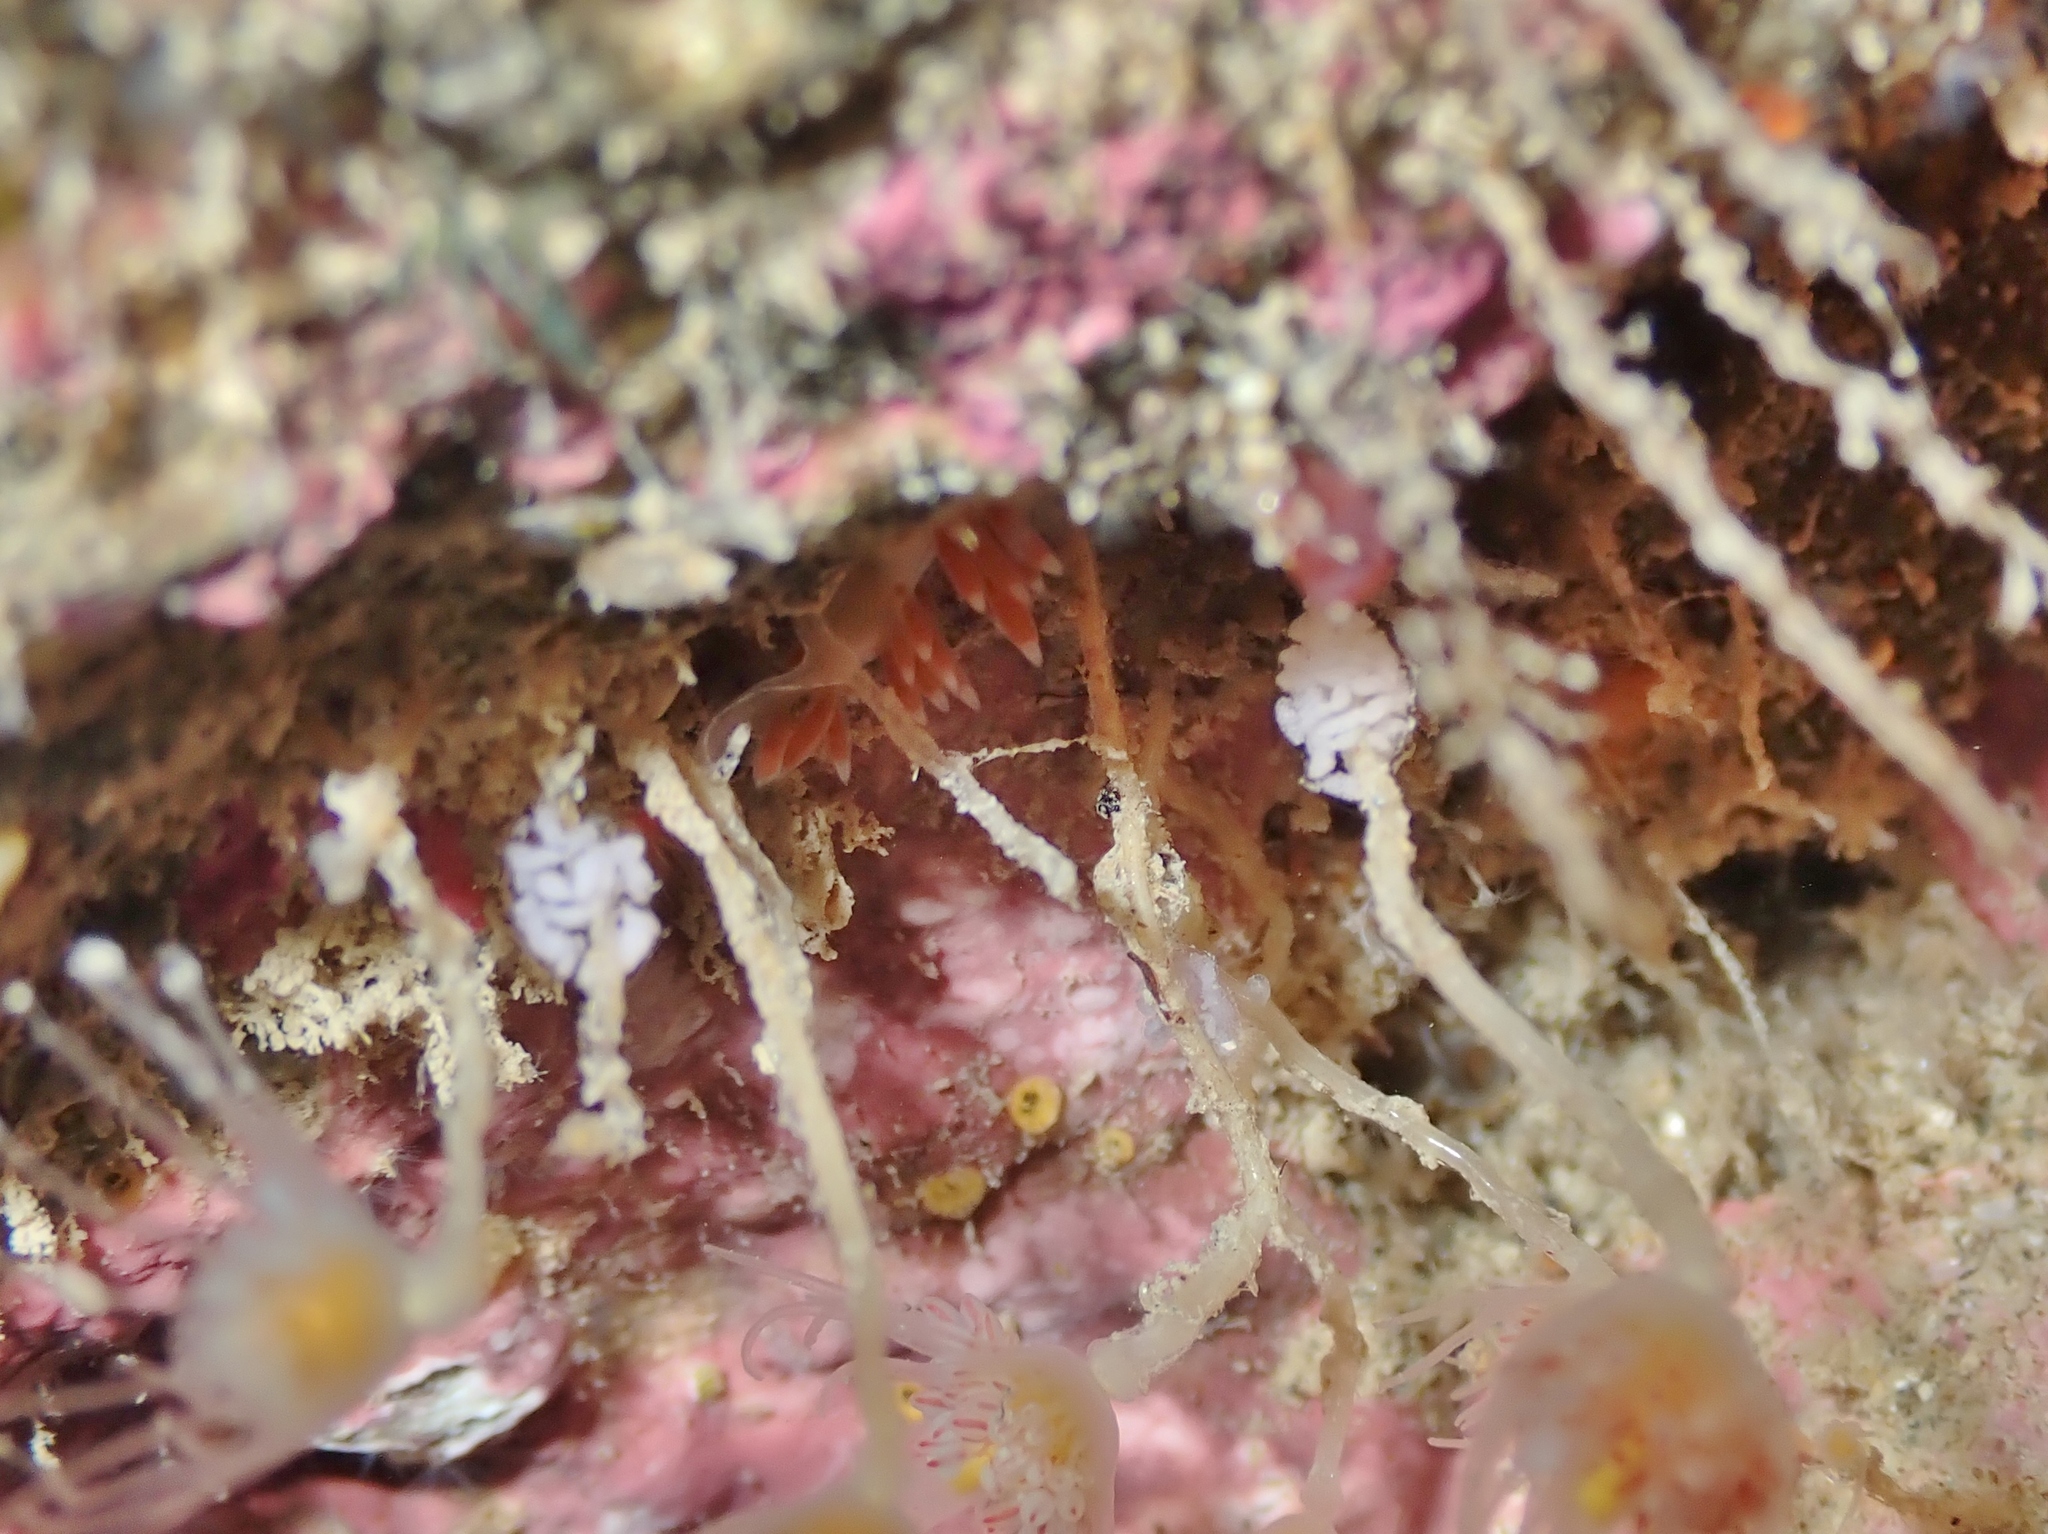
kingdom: Animalia
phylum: Mollusca
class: Gastropoda
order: Nudibranchia
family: Flabellinidae
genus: Coryphellina
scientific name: Coryphellina albomarginata
